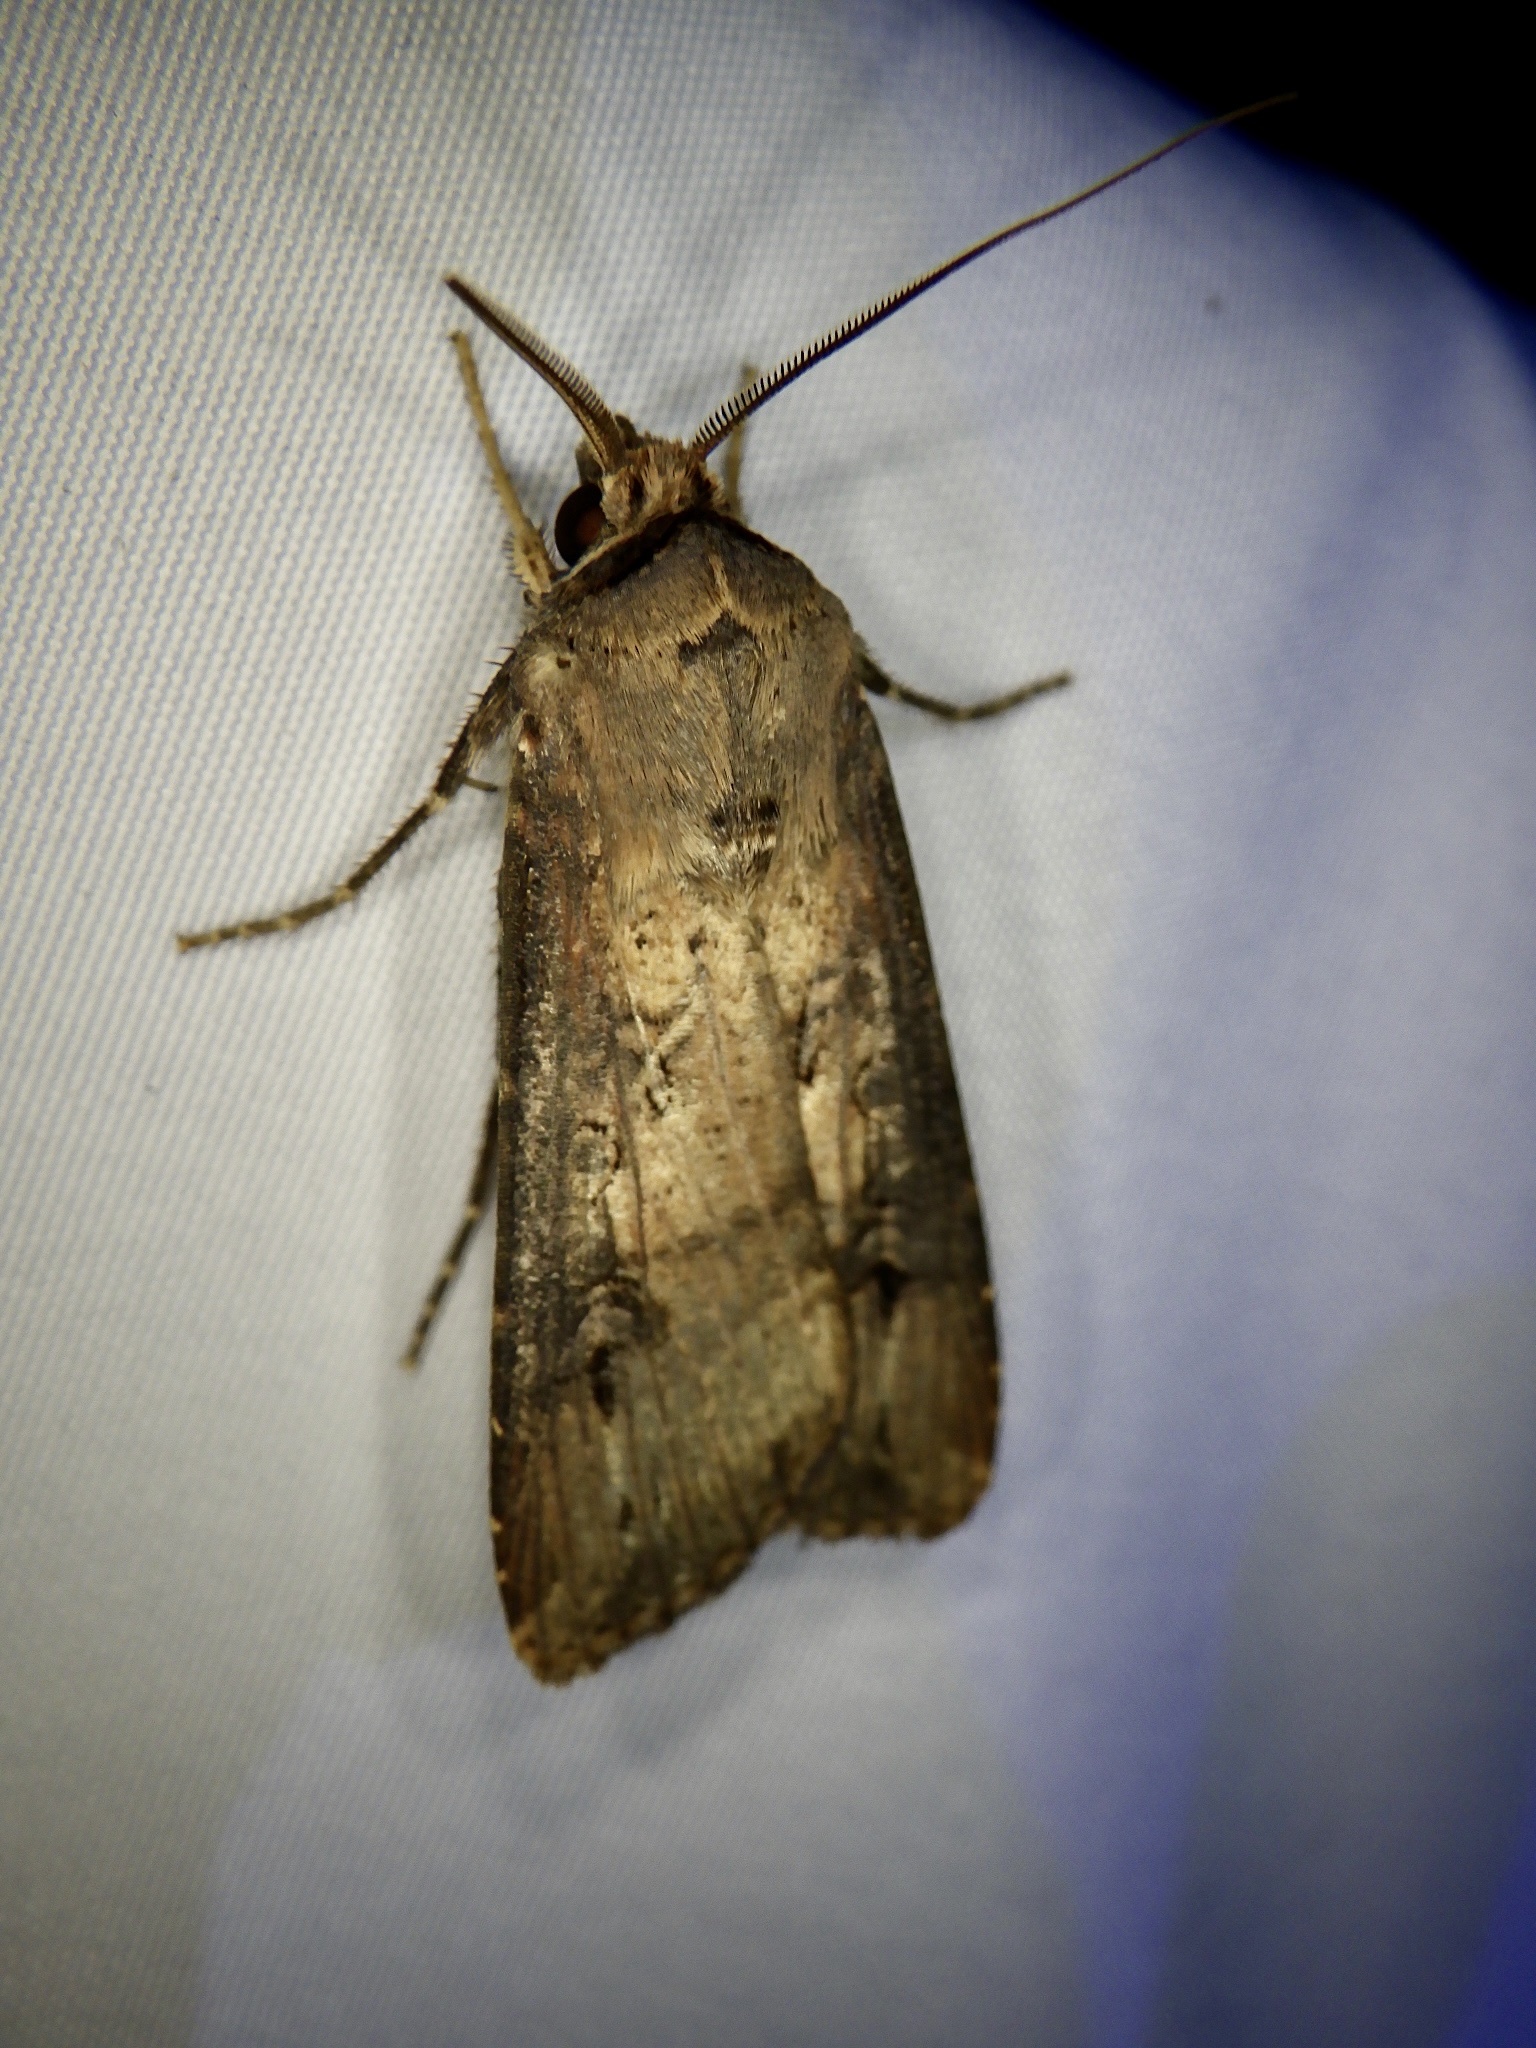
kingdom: Animalia
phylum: Arthropoda
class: Insecta
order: Lepidoptera
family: Noctuidae
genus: Agrotis
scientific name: Agrotis ipsilon
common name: Dark sword-grass
